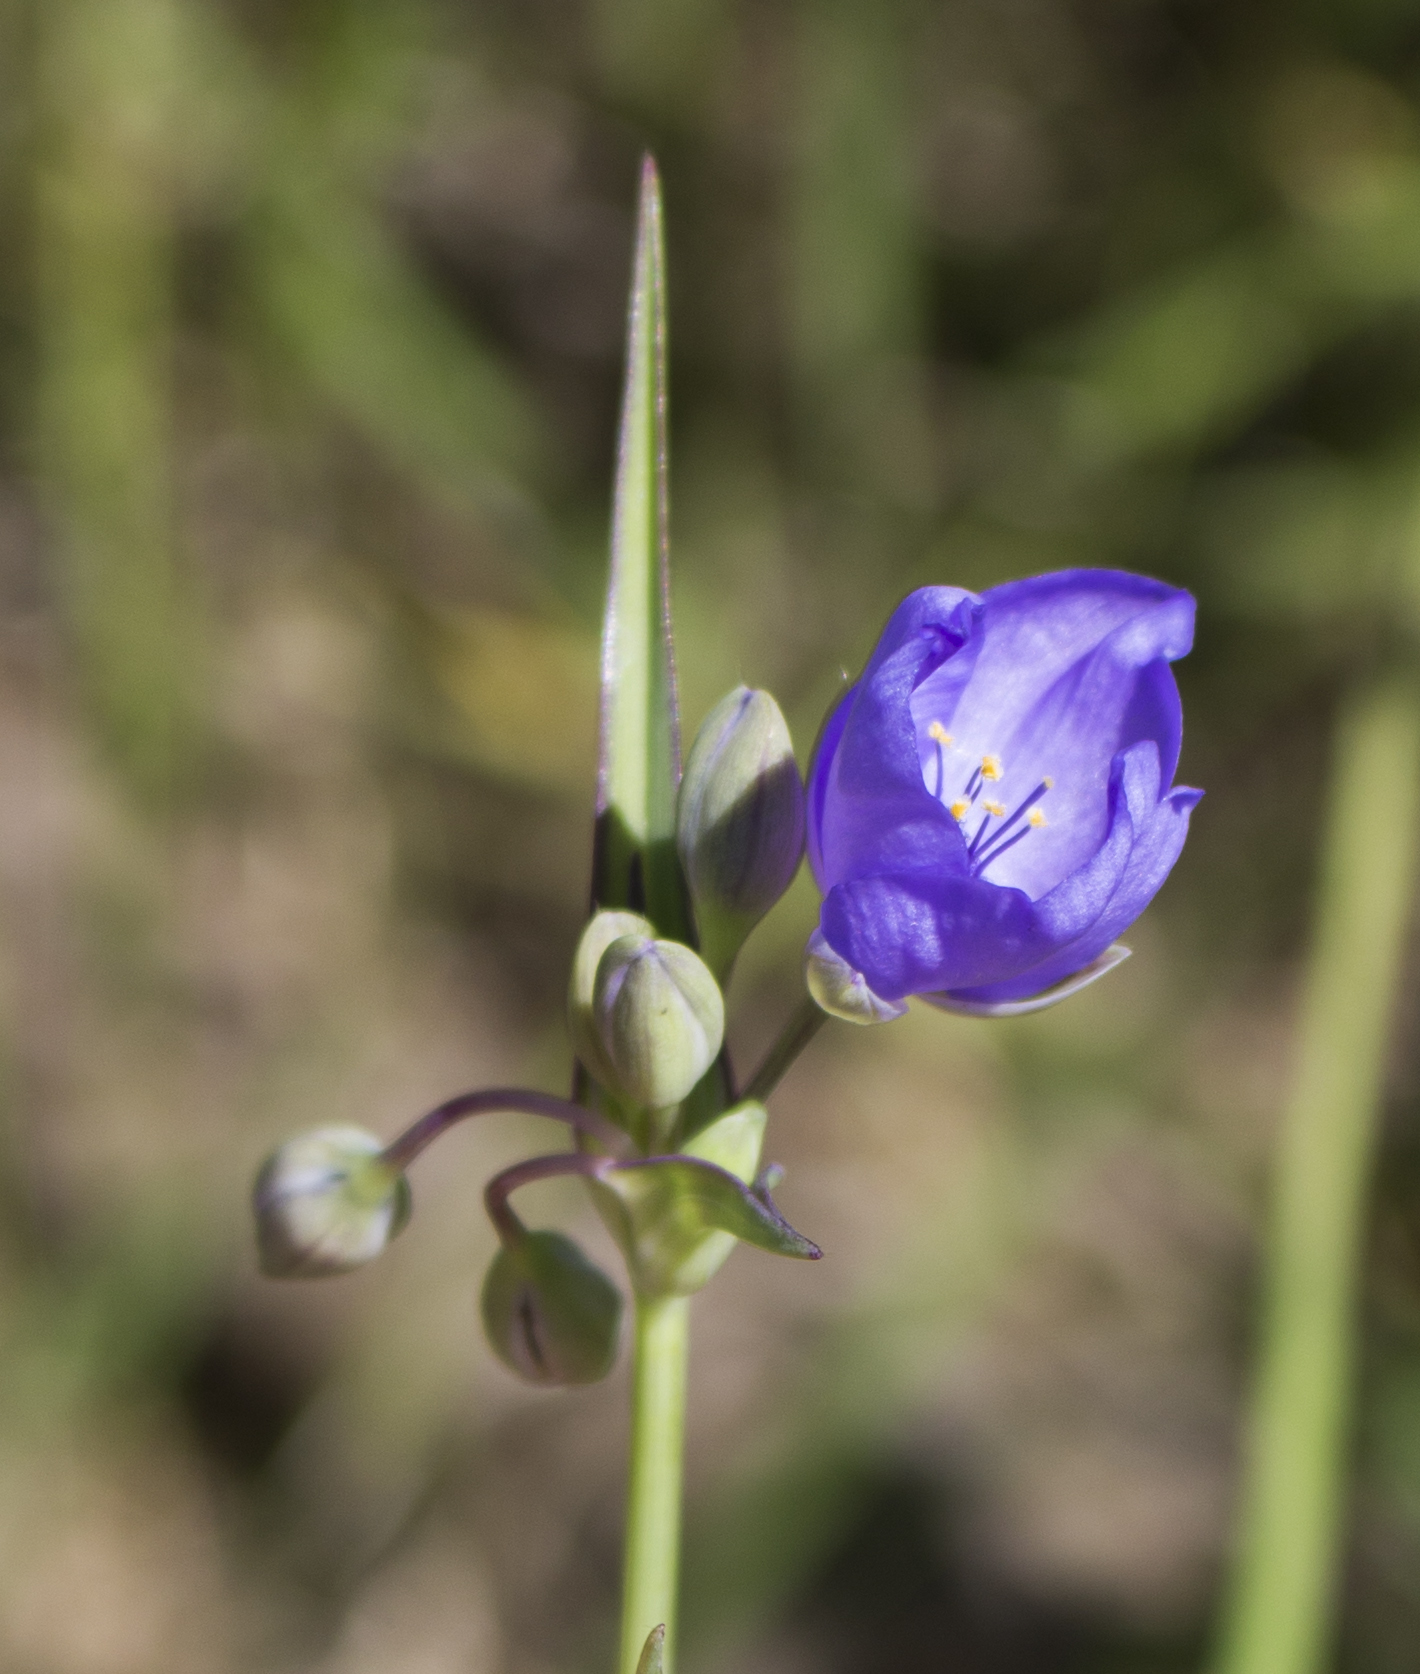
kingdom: Plantae
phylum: Tracheophyta
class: Liliopsida
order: Commelinales
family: Commelinaceae
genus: Tradescantia
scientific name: Tradescantia ohiensis
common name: Ohio spiderwort
